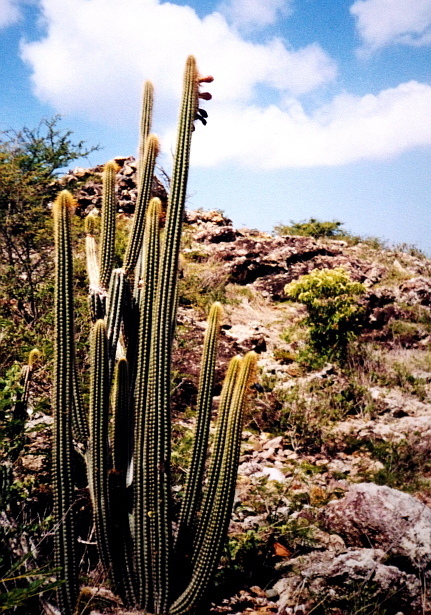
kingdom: Plantae
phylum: Tracheophyta
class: Magnoliopsida
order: Caryophyllales
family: Cactaceae
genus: Pilosocereus
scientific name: Pilosocereus curtisii
